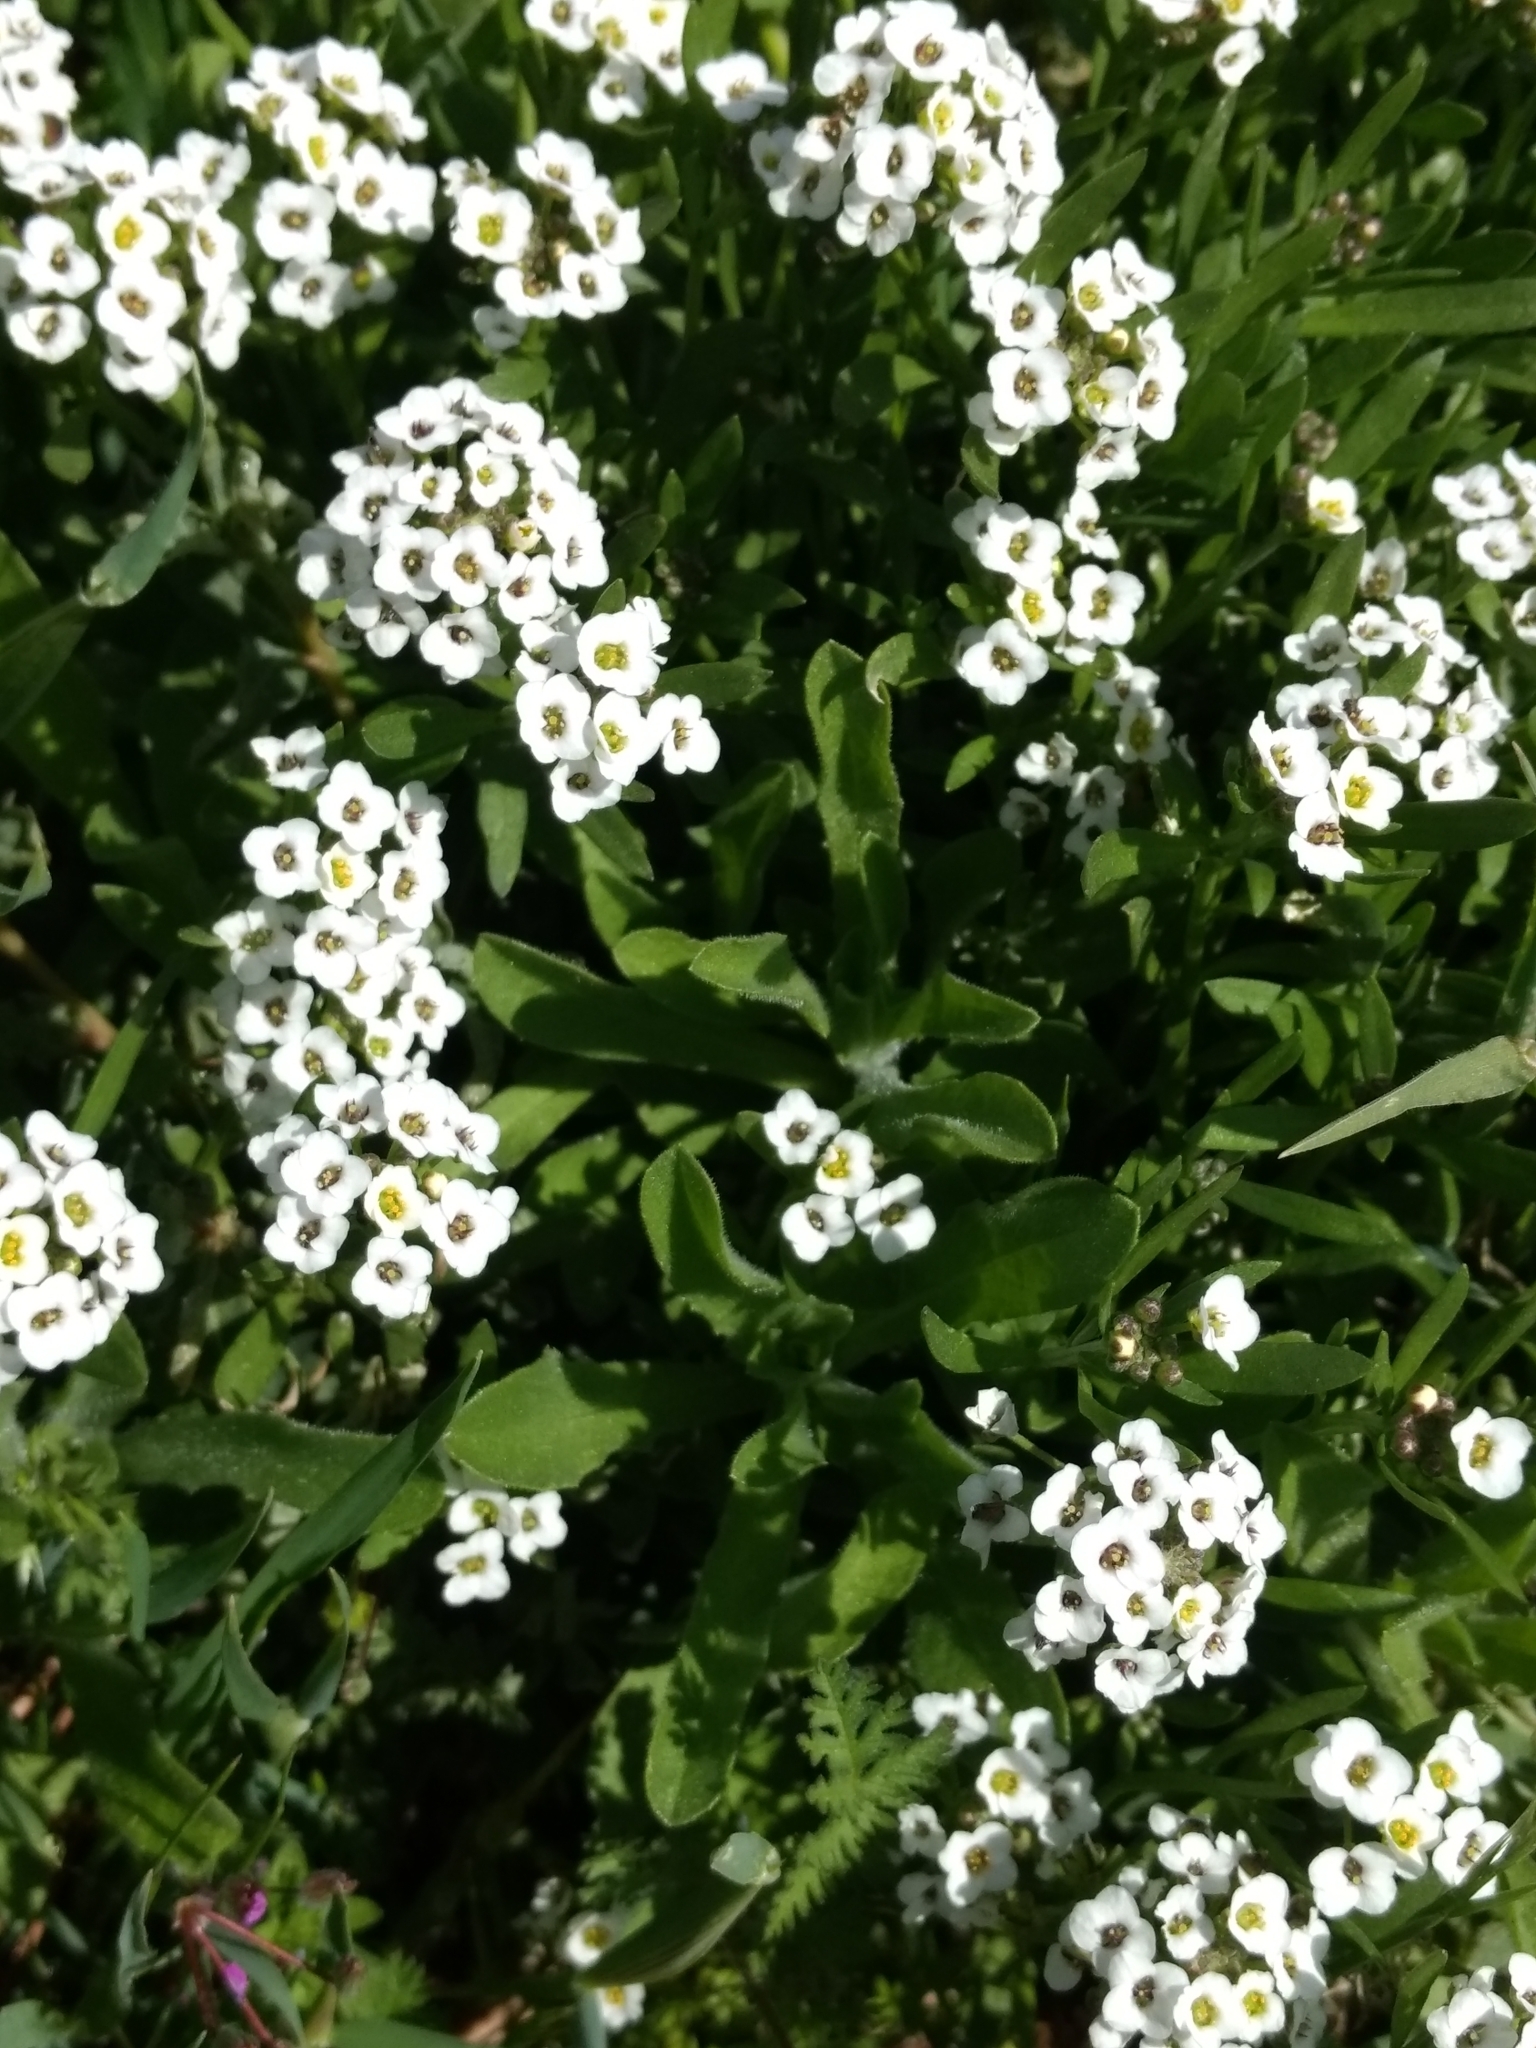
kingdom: Plantae
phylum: Tracheophyta
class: Magnoliopsida
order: Brassicales
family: Brassicaceae
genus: Lobularia
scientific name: Lobularia maritima
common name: Sweet alison
